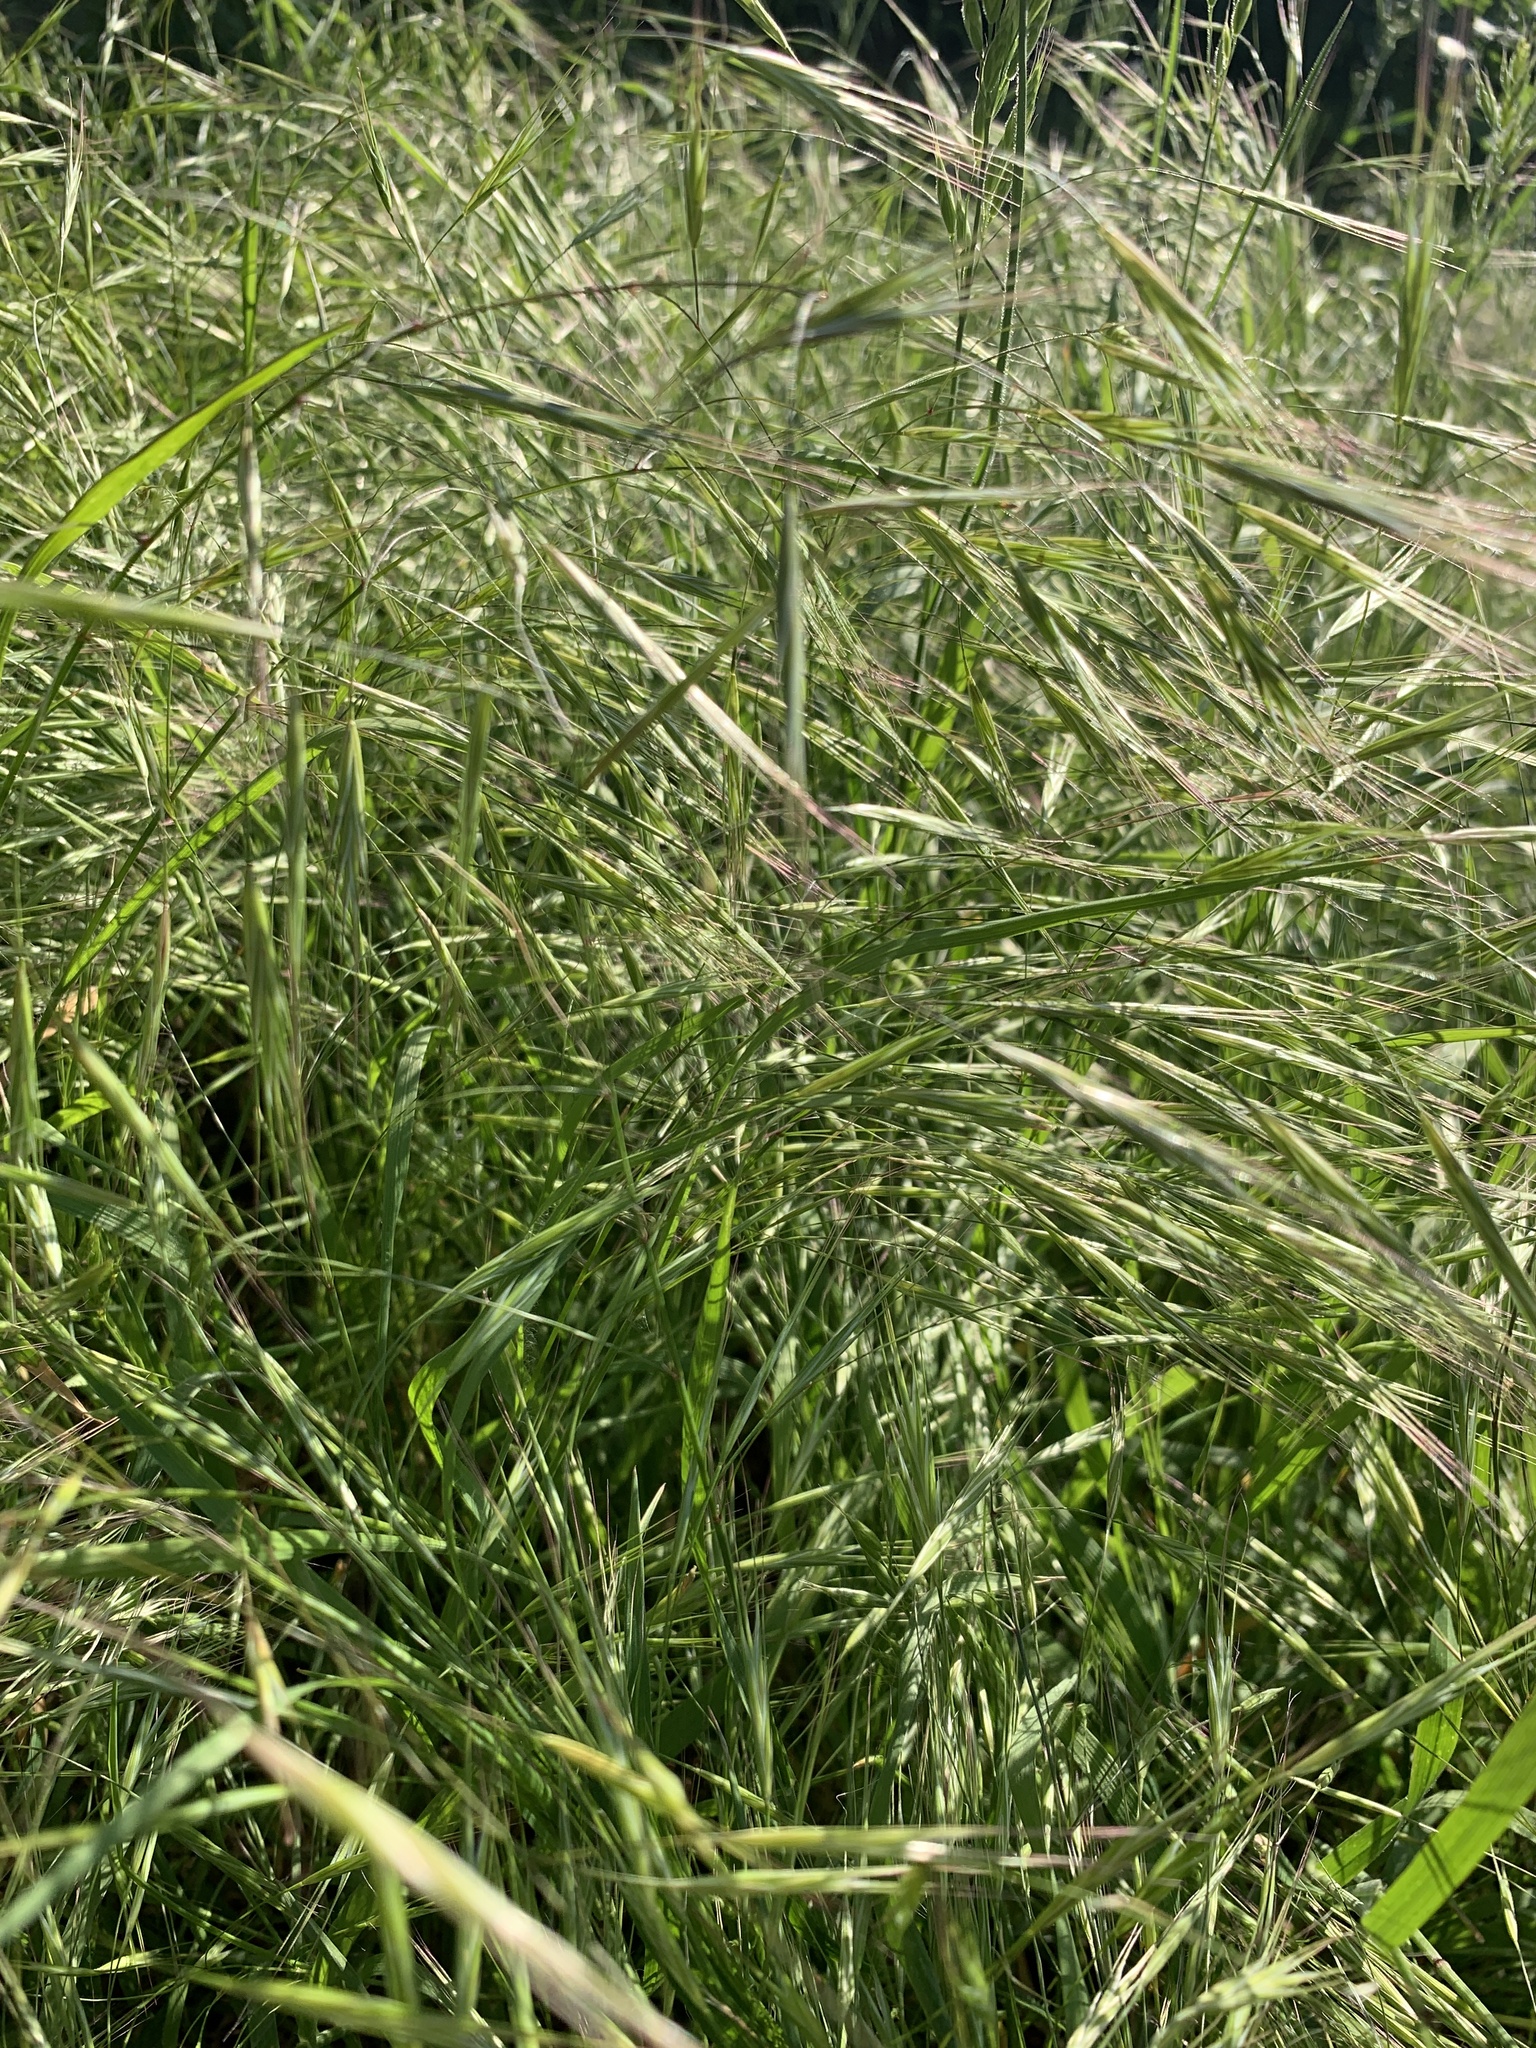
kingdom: Plantae
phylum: Tracheophyta
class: Liliopsida
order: Poales
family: Poaceae
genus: Bromus
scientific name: Bromus sterilis
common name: Poverty brome
